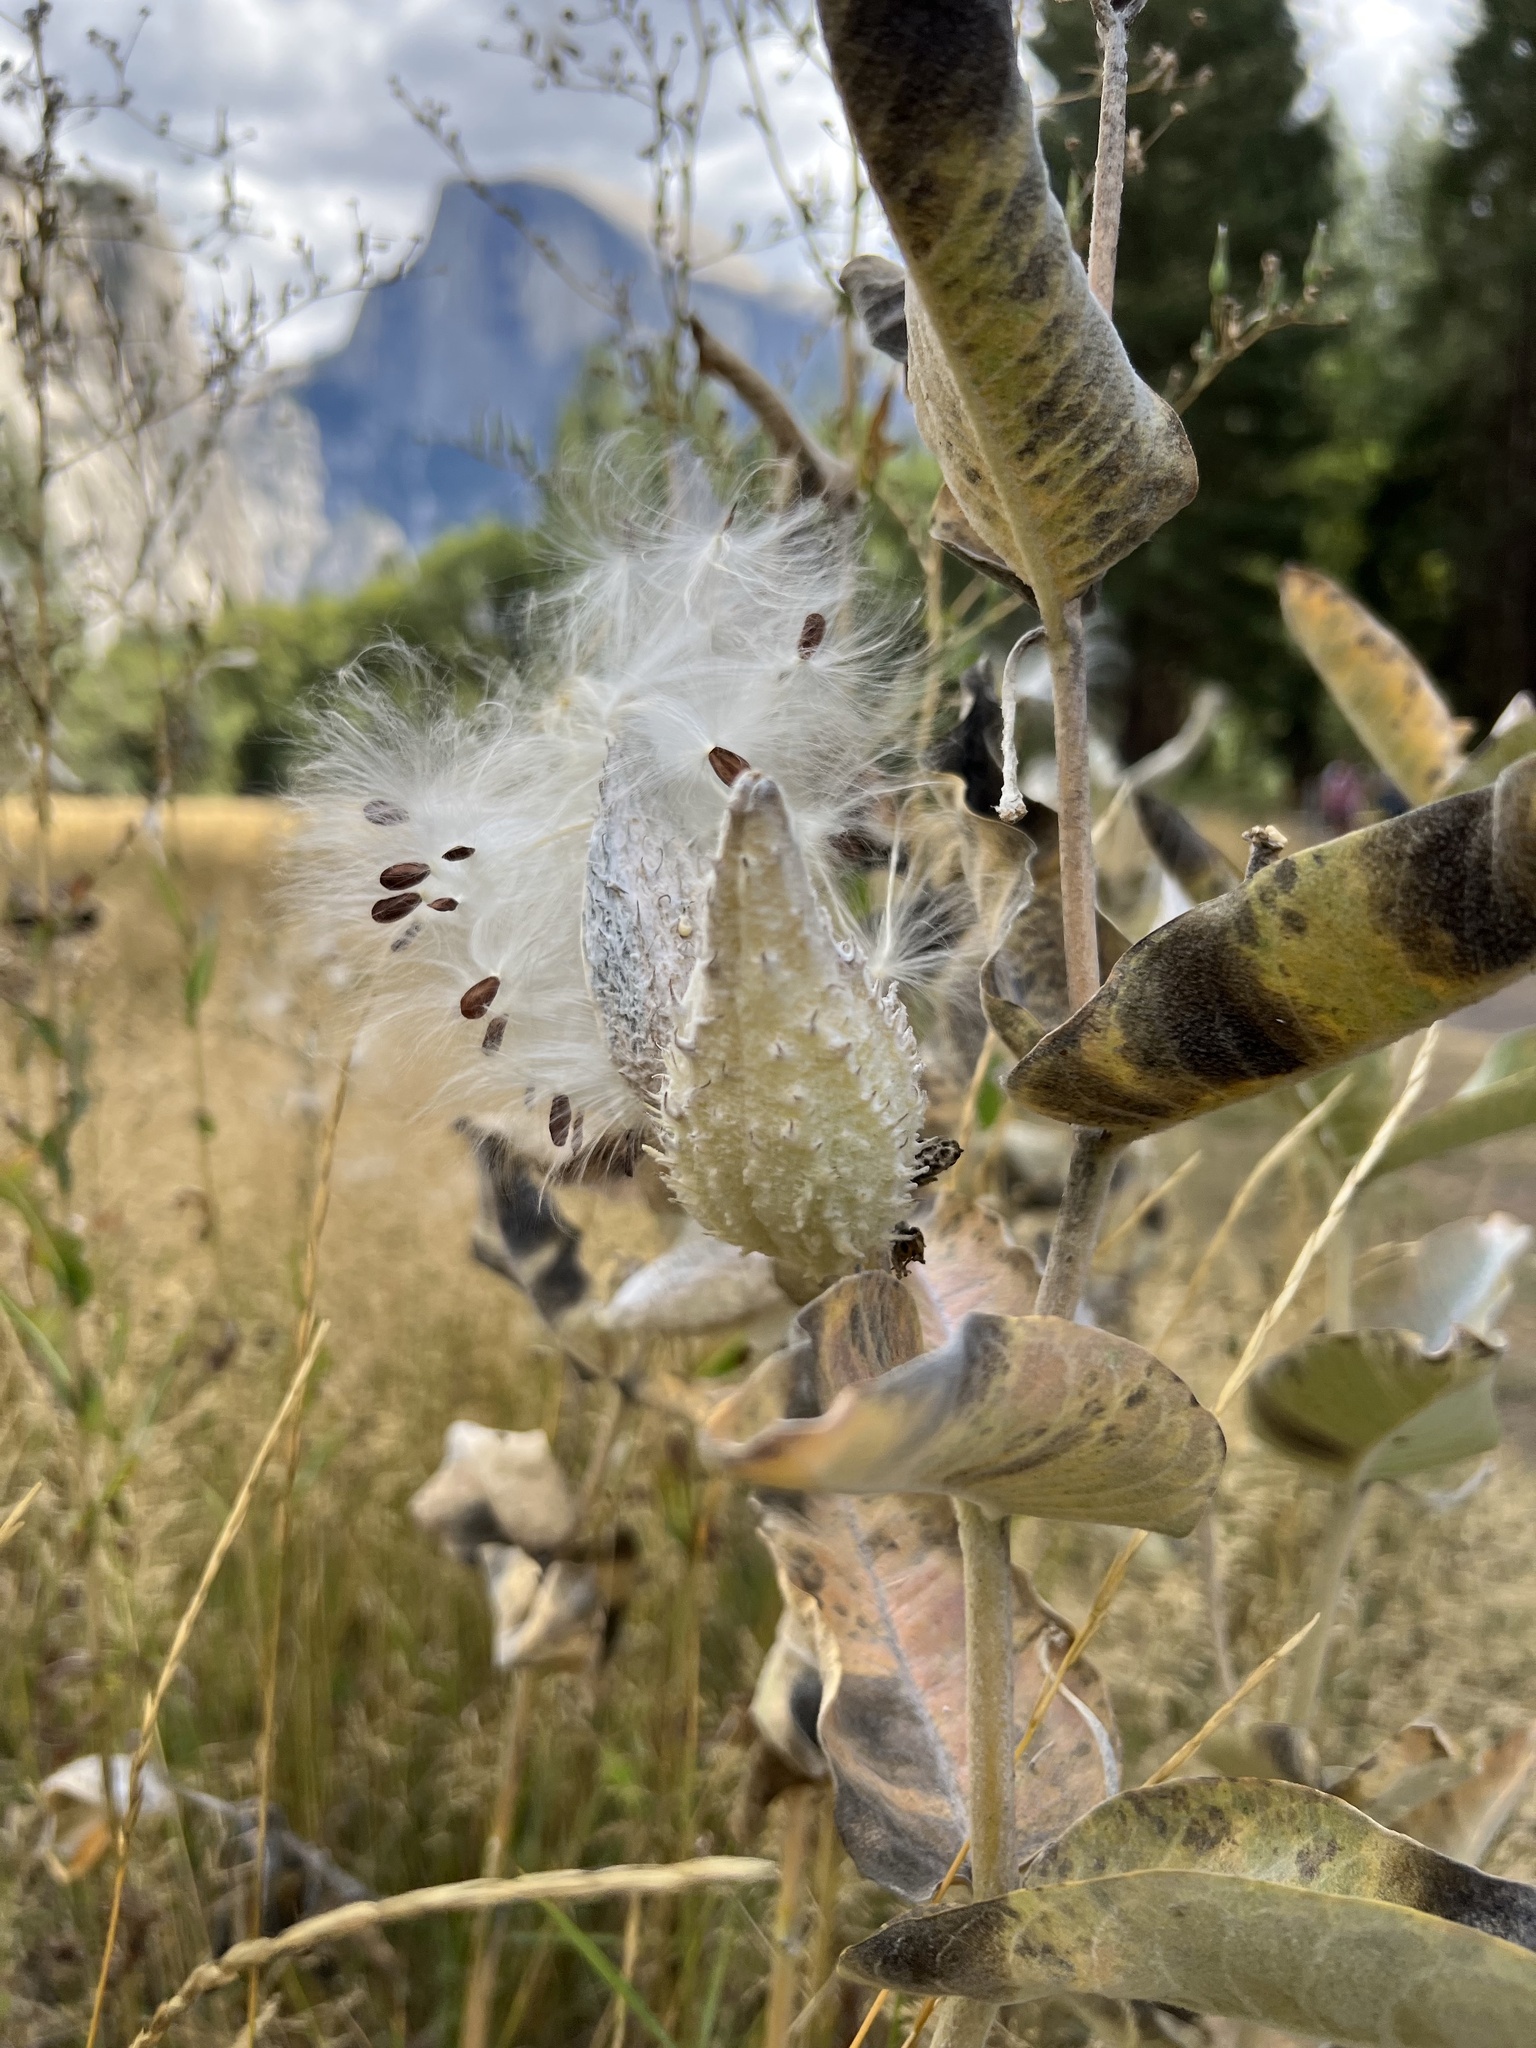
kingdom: Plantae
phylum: Tracheophyta
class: Magnoliopsida
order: Gentianales
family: Apocynaceae
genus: Asclepias
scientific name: Asclepias speciosa
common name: Showy milkweed
